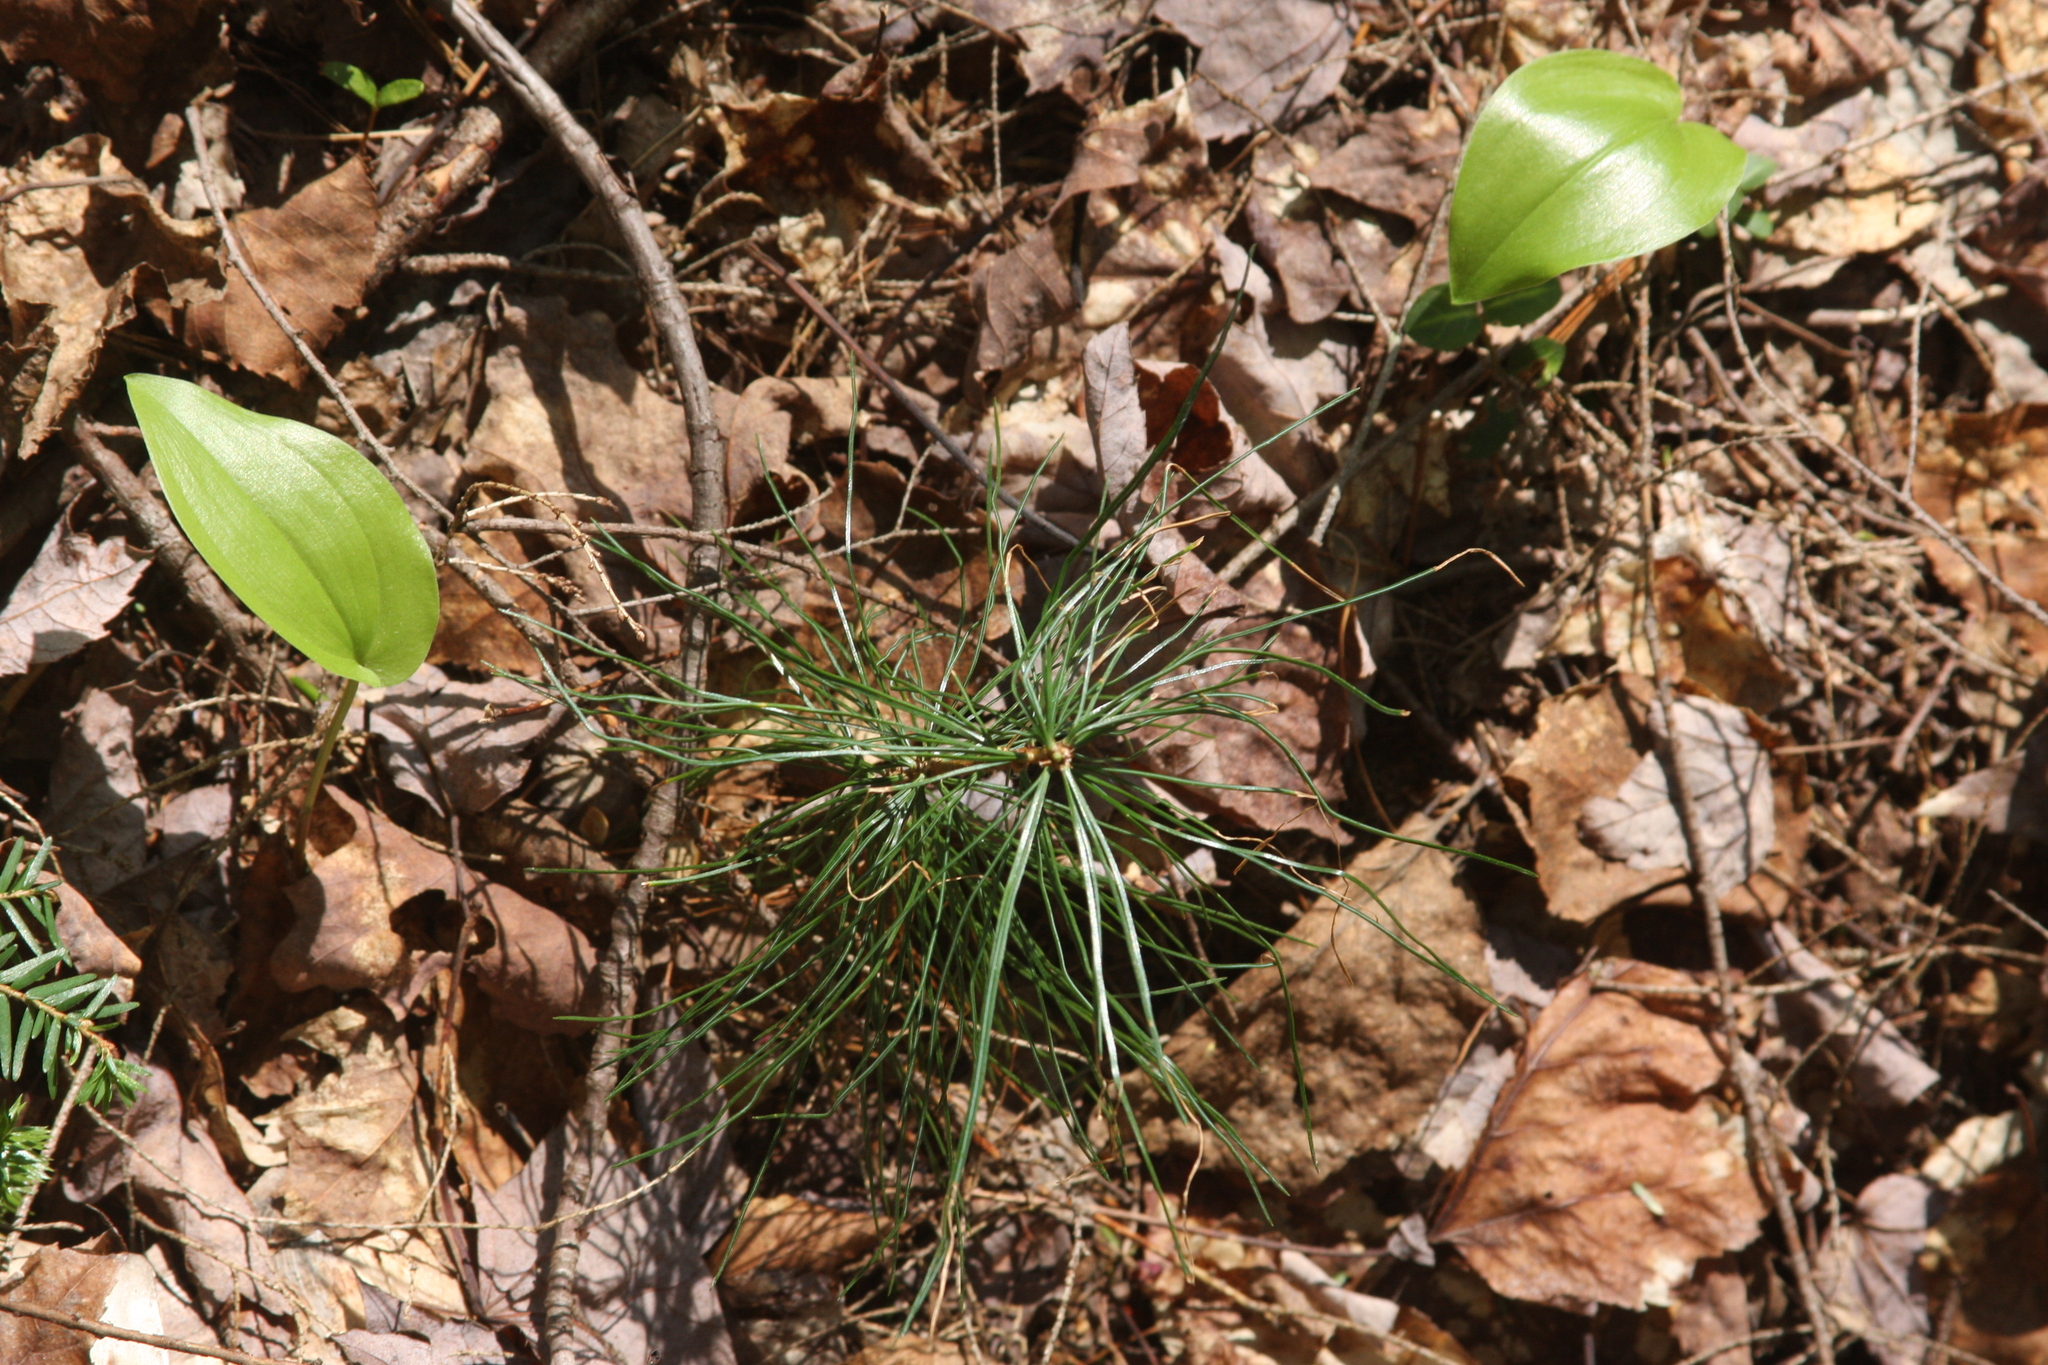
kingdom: Plantae
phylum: Tracheophyta
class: Pinopsida
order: Pinales
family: Pinaceae
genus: Pinus
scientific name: Pinus strobus
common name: Weymouth pine
